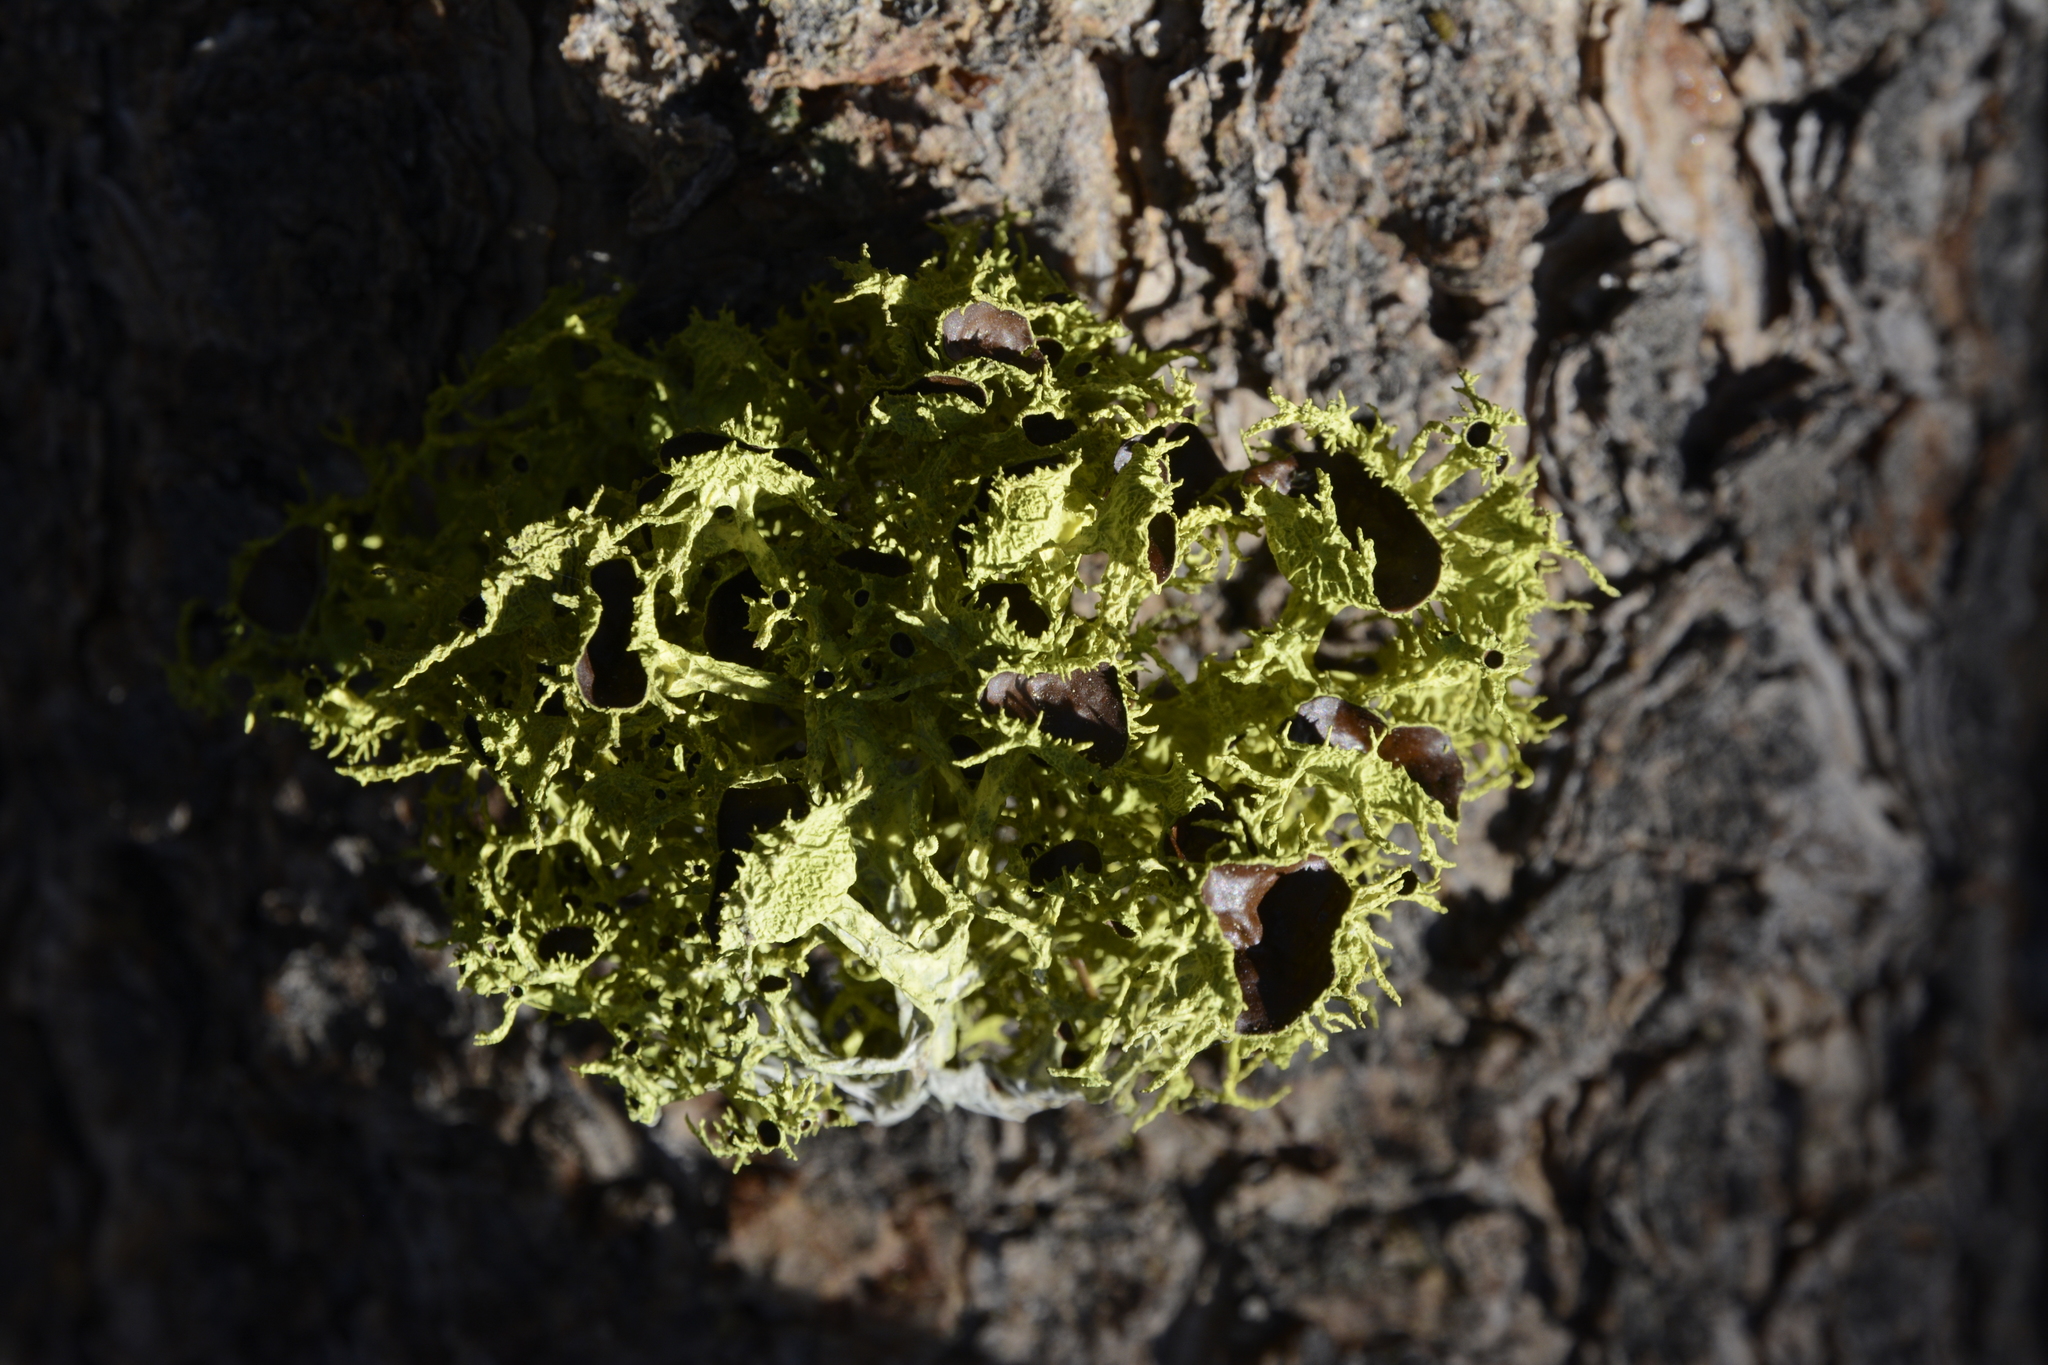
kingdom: Fungi
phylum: Ascomycota
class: Lecanoromycetes
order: Lecanorales
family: Parmeliaceae
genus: Letharia
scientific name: Letharia columbiana
